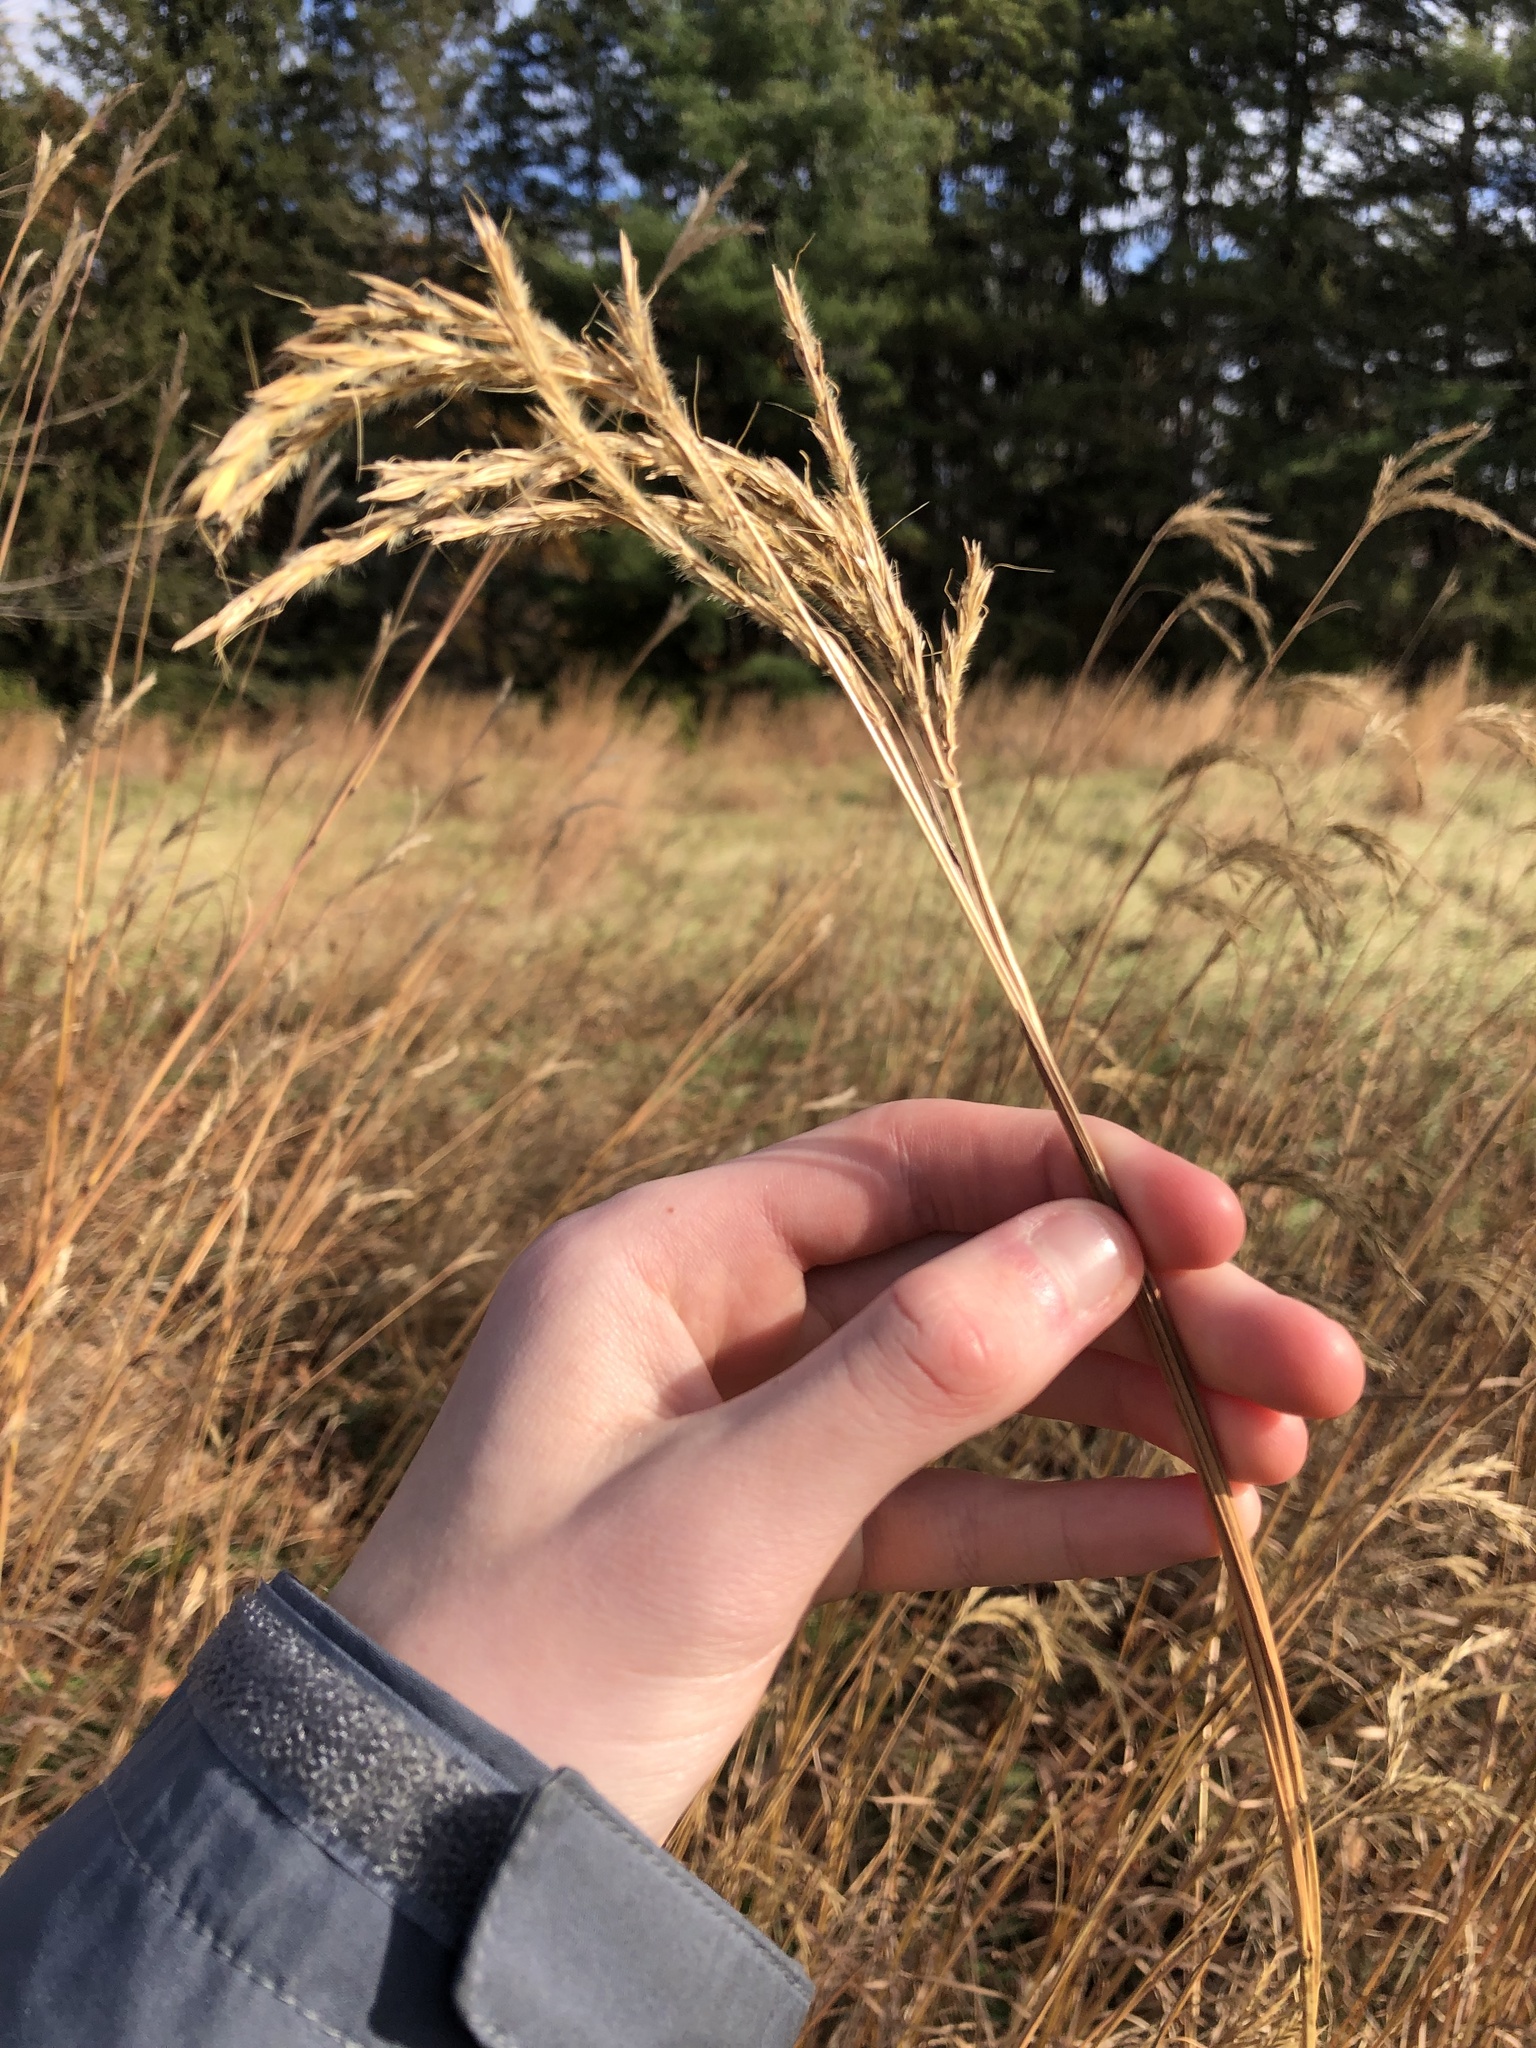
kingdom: Plantae
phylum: Tracheophyta
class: Liliopsida
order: Poales
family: Poaceae
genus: Andropogon
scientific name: Andropogon gerardi
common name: Big bluestem
